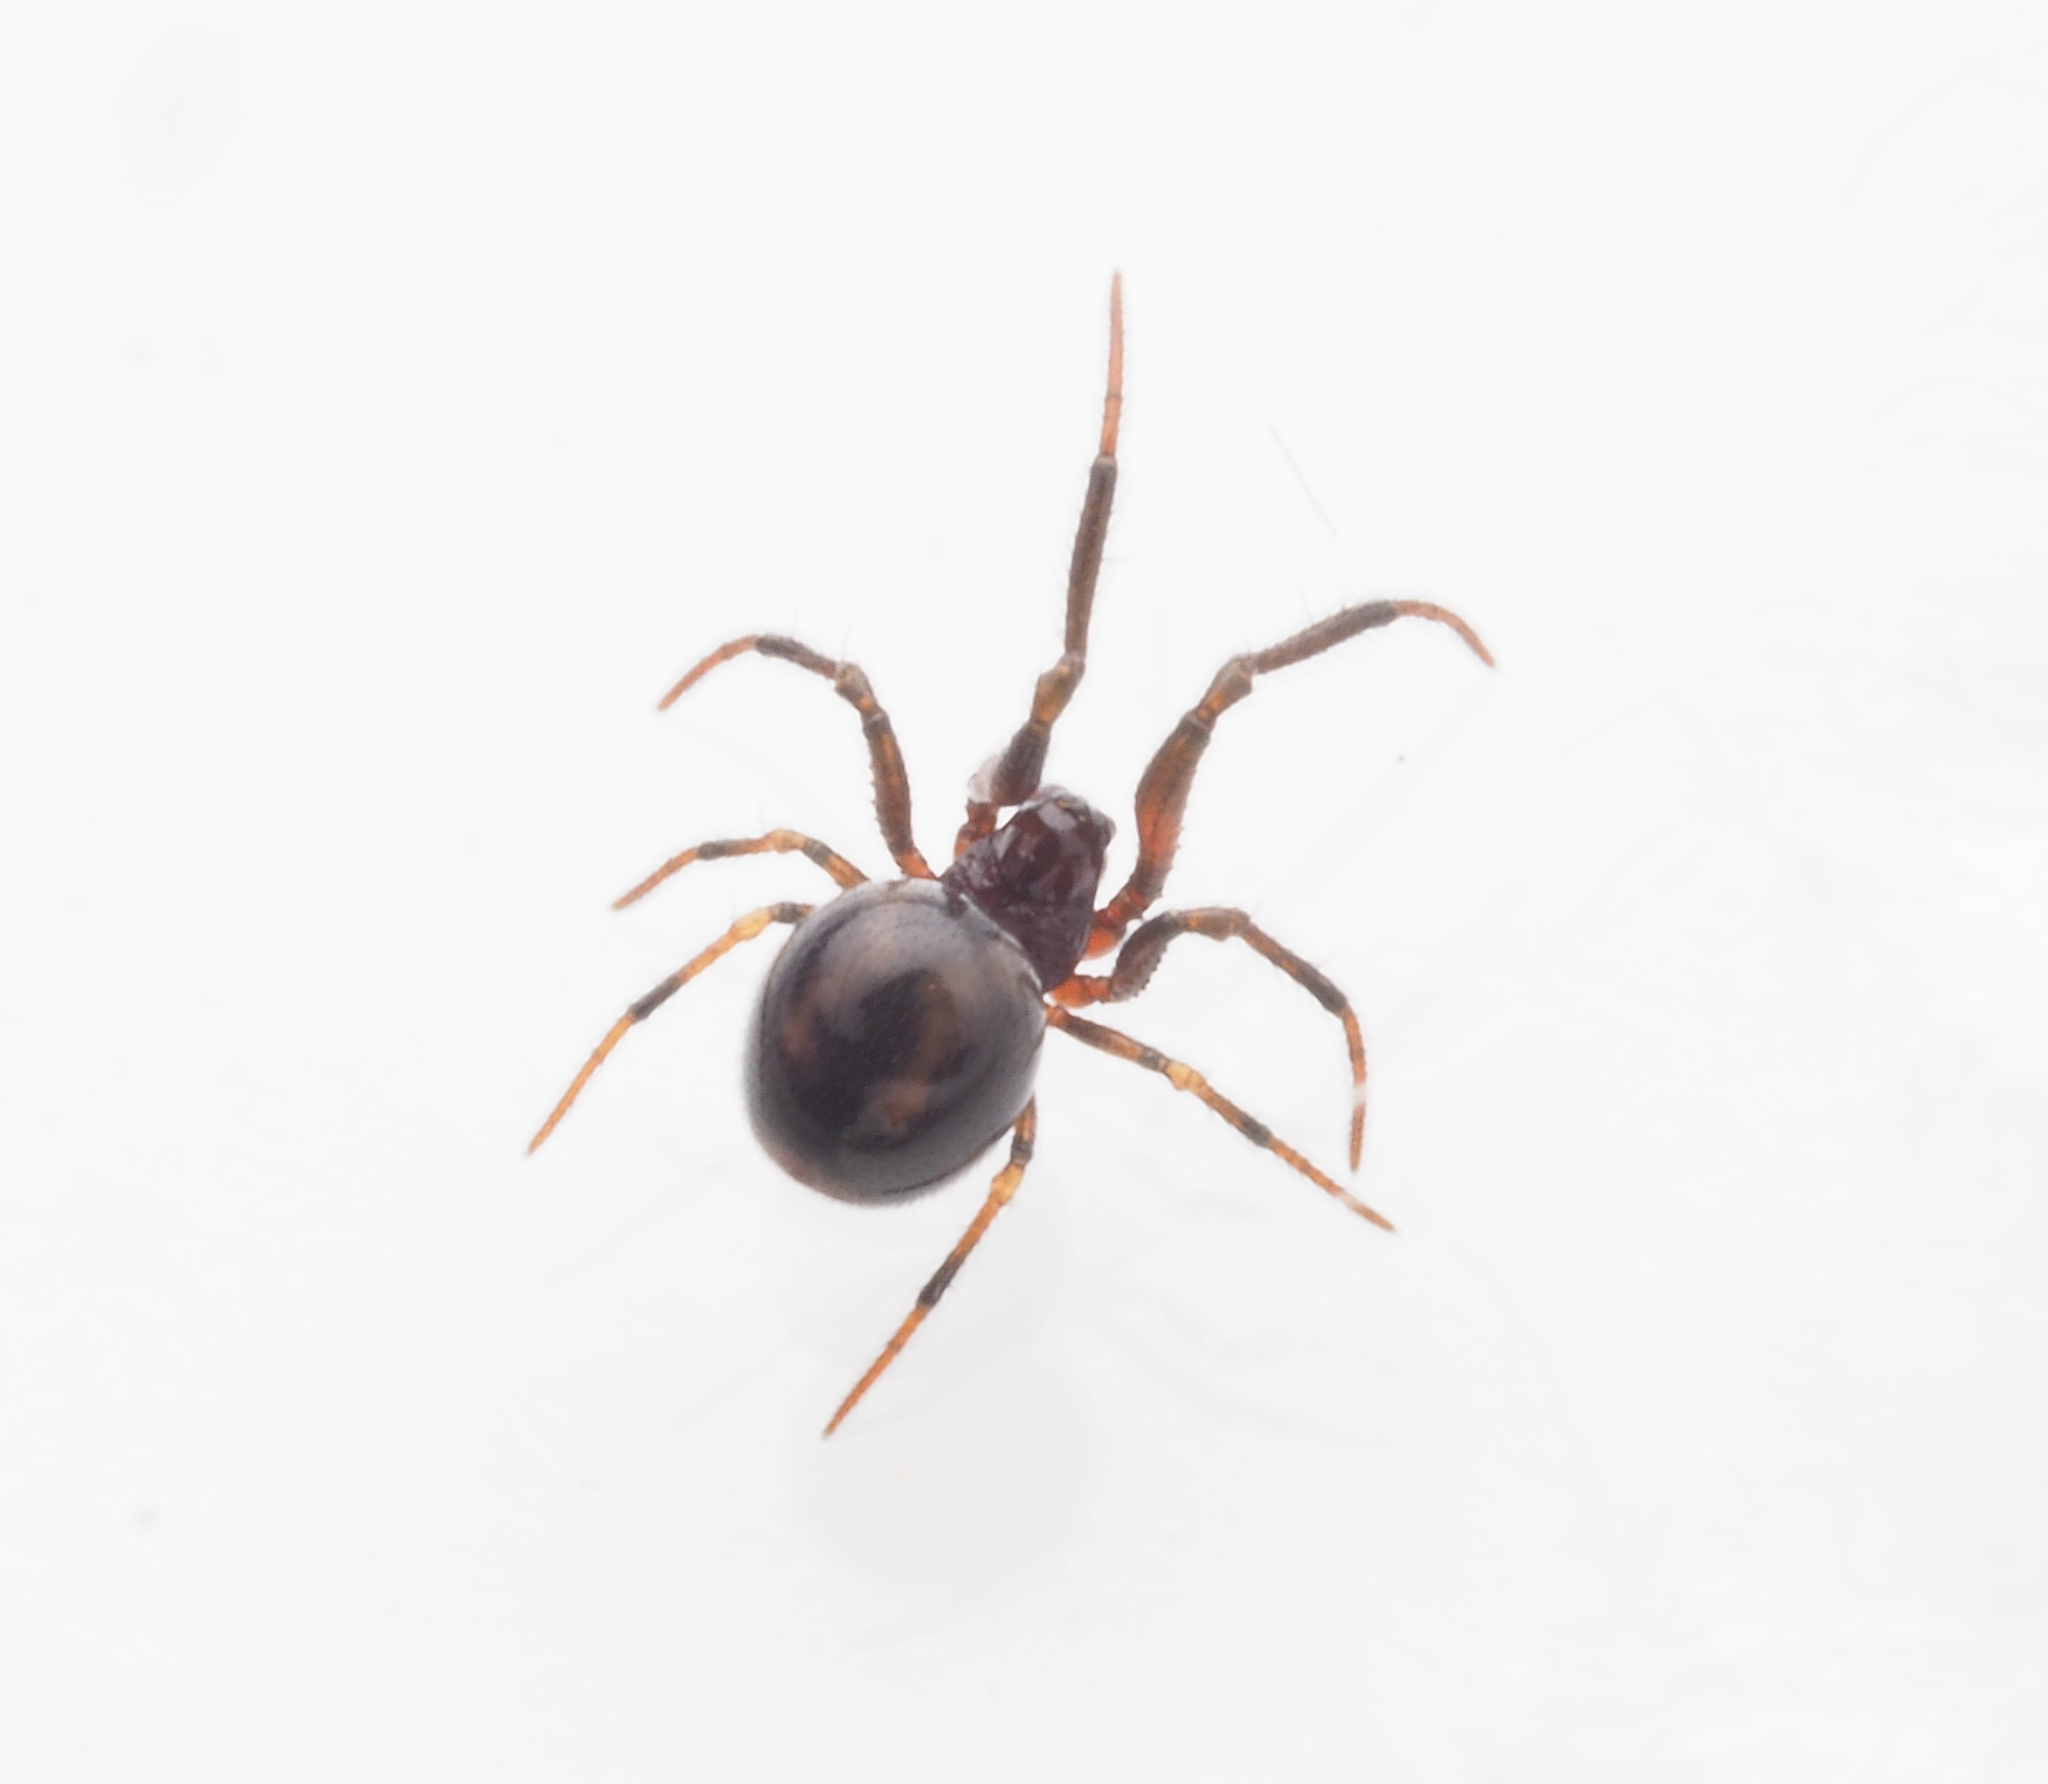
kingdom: Animalia
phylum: Arthropoda
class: Arachnida
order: Araneae
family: Anapidae
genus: Maxanapis
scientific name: Maxanapis crassifemoralis
